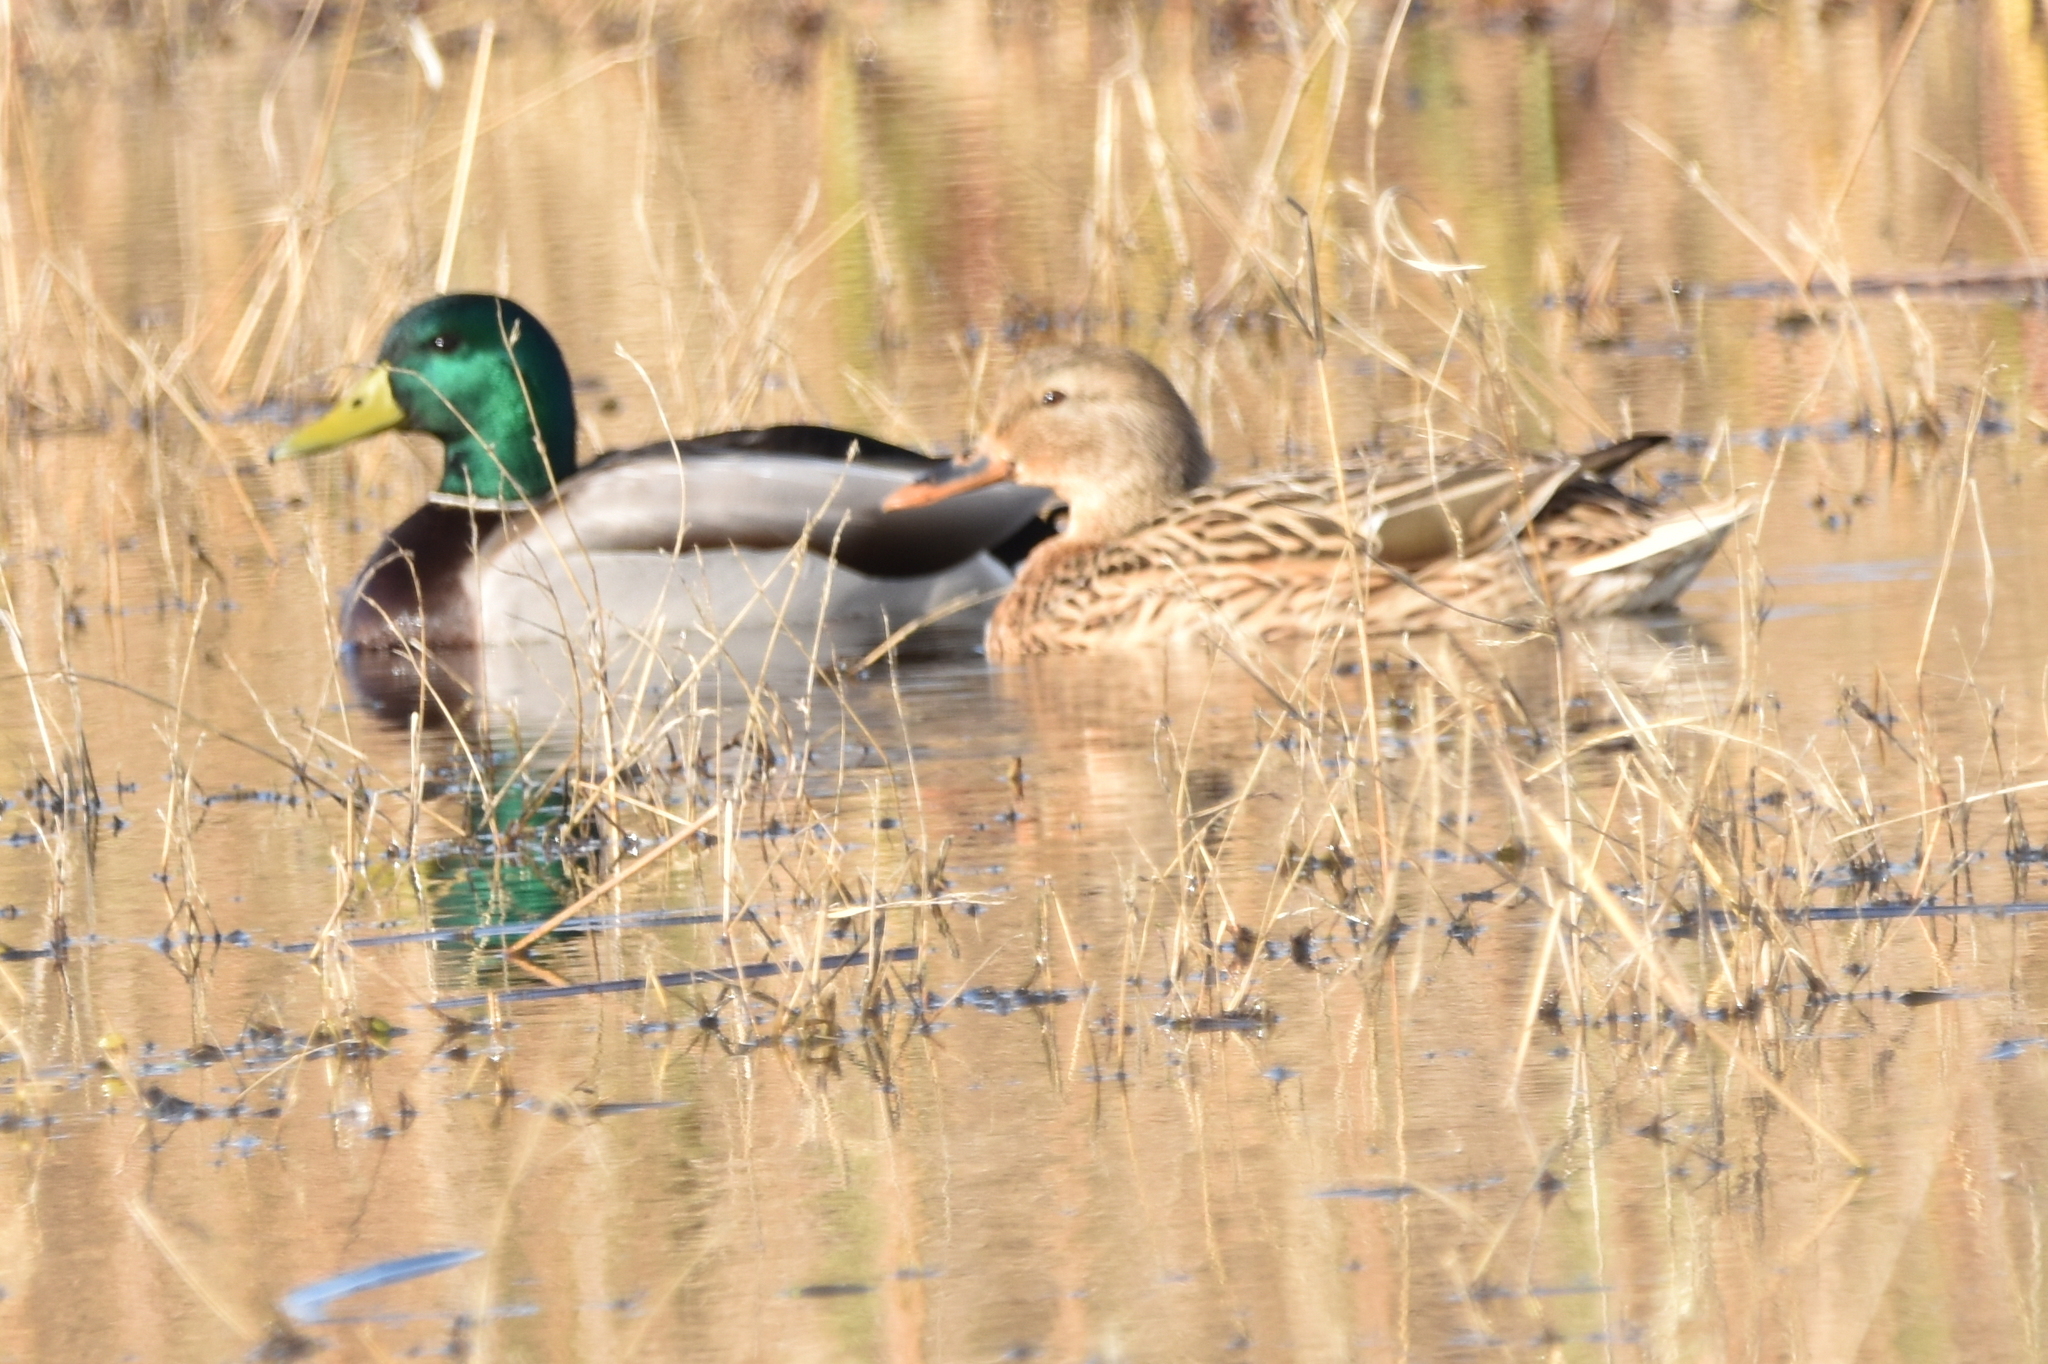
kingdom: Animalia
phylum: Chordata
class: Aves
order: Anseriformes
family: Anatidae
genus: Anas
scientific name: Anas platyrhynchos
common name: Mallard
